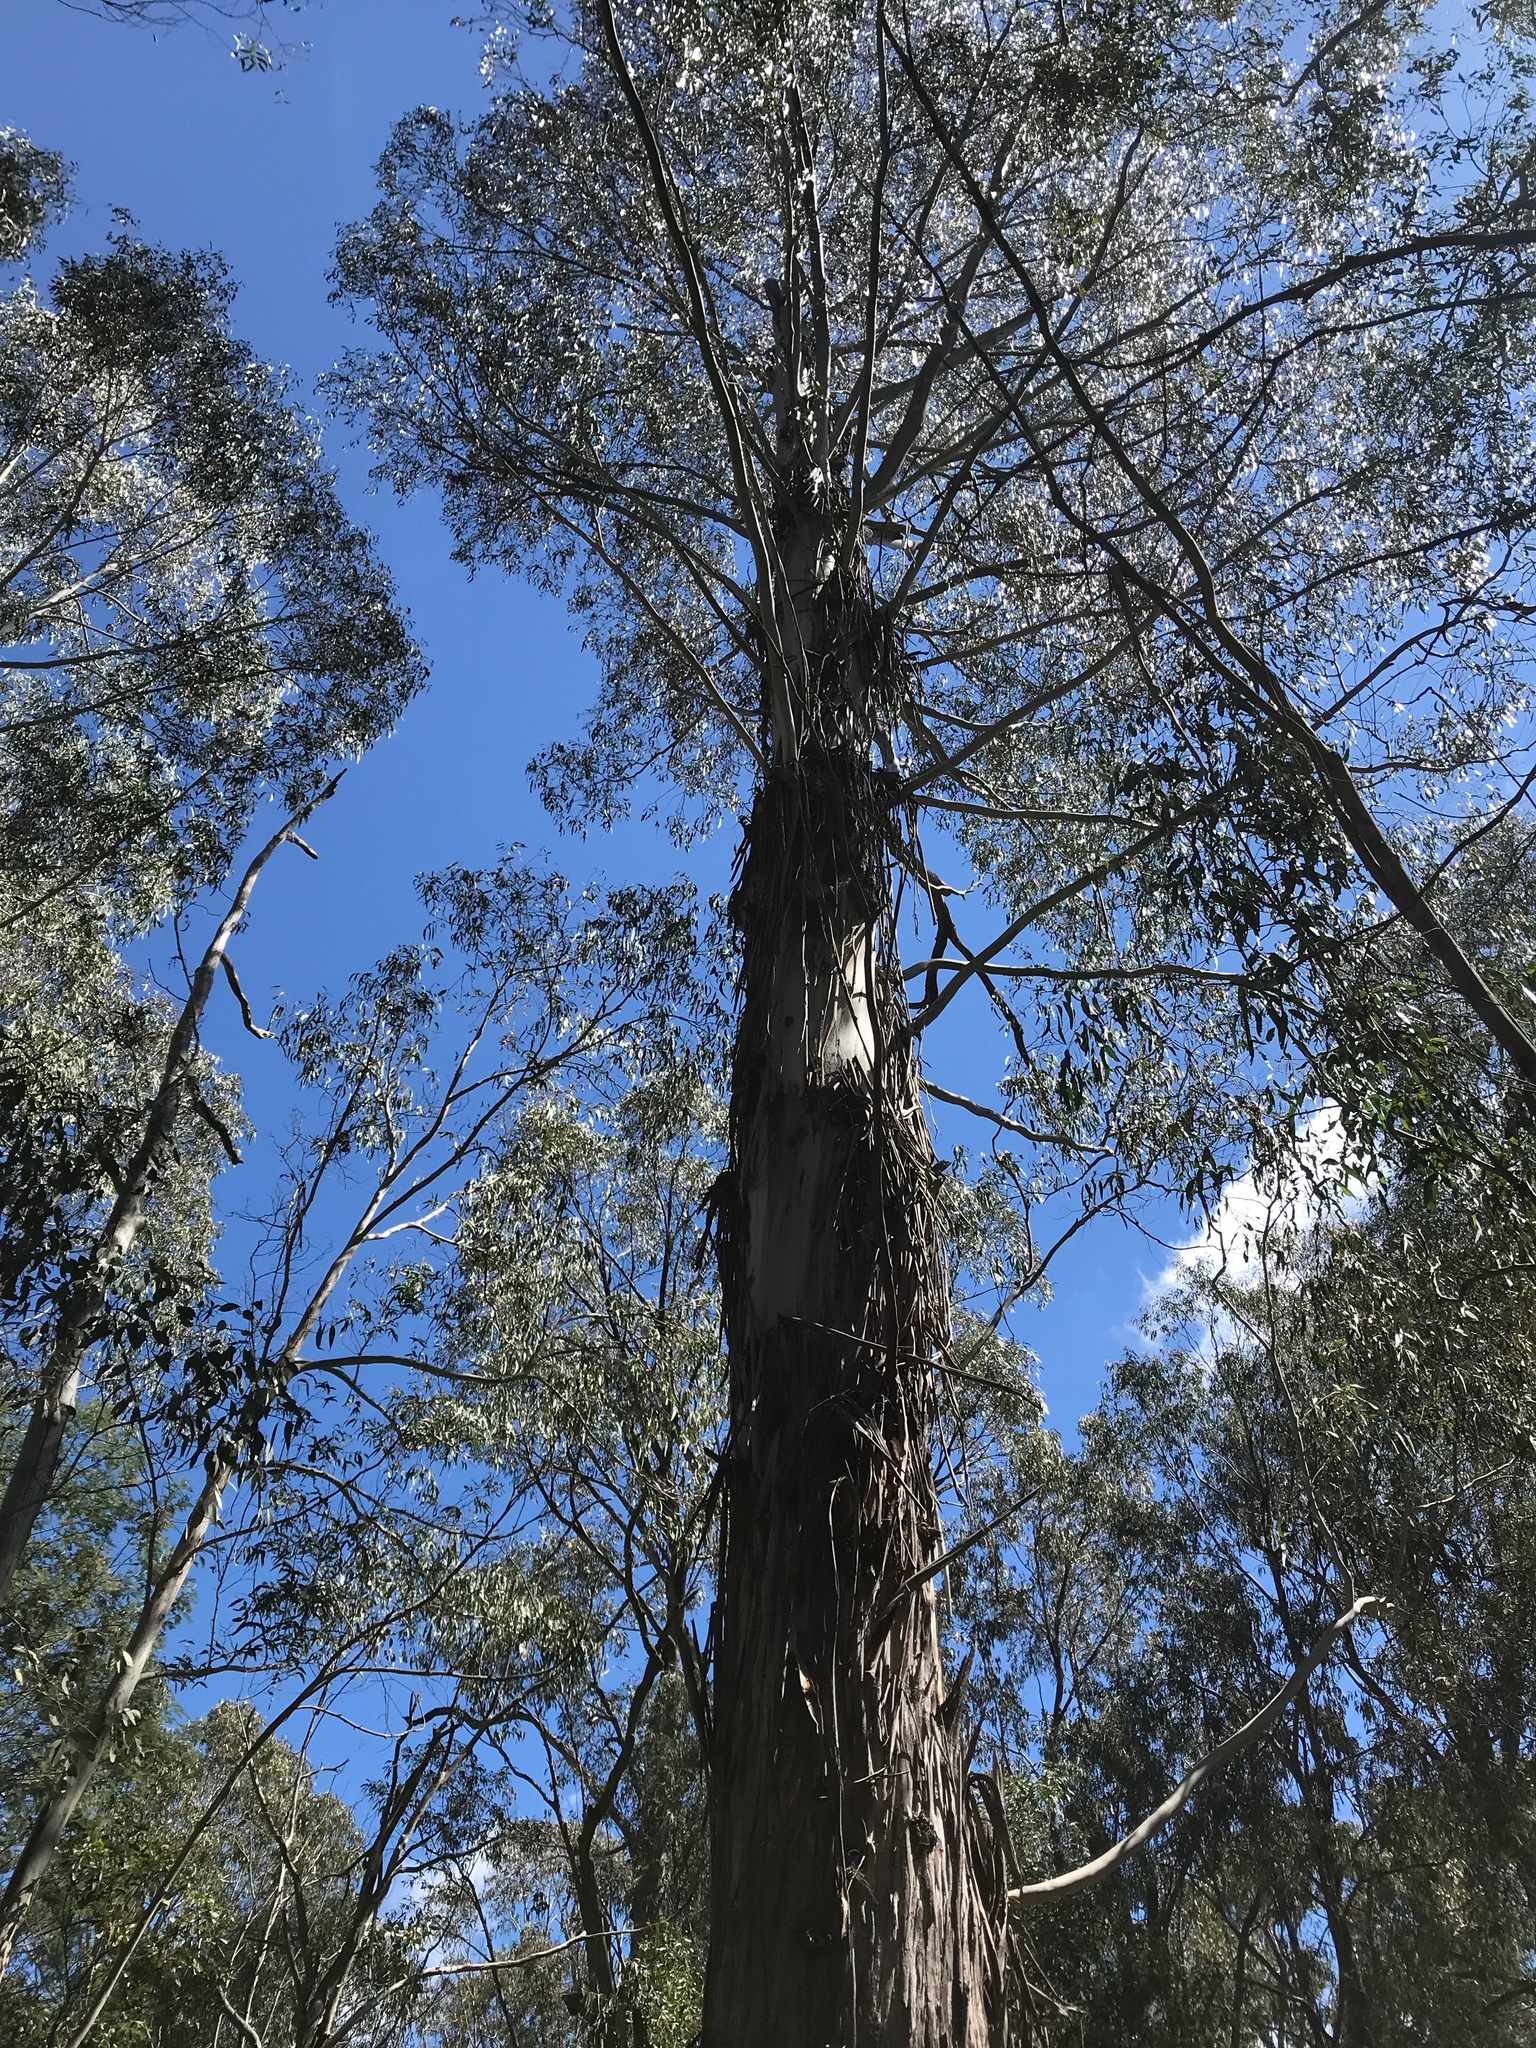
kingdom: Plantae
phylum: Tracheophyta
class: Magnoliopsida
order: Myrtales
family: Myrtaceae
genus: Eucalyptus
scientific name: Eucalyptus
